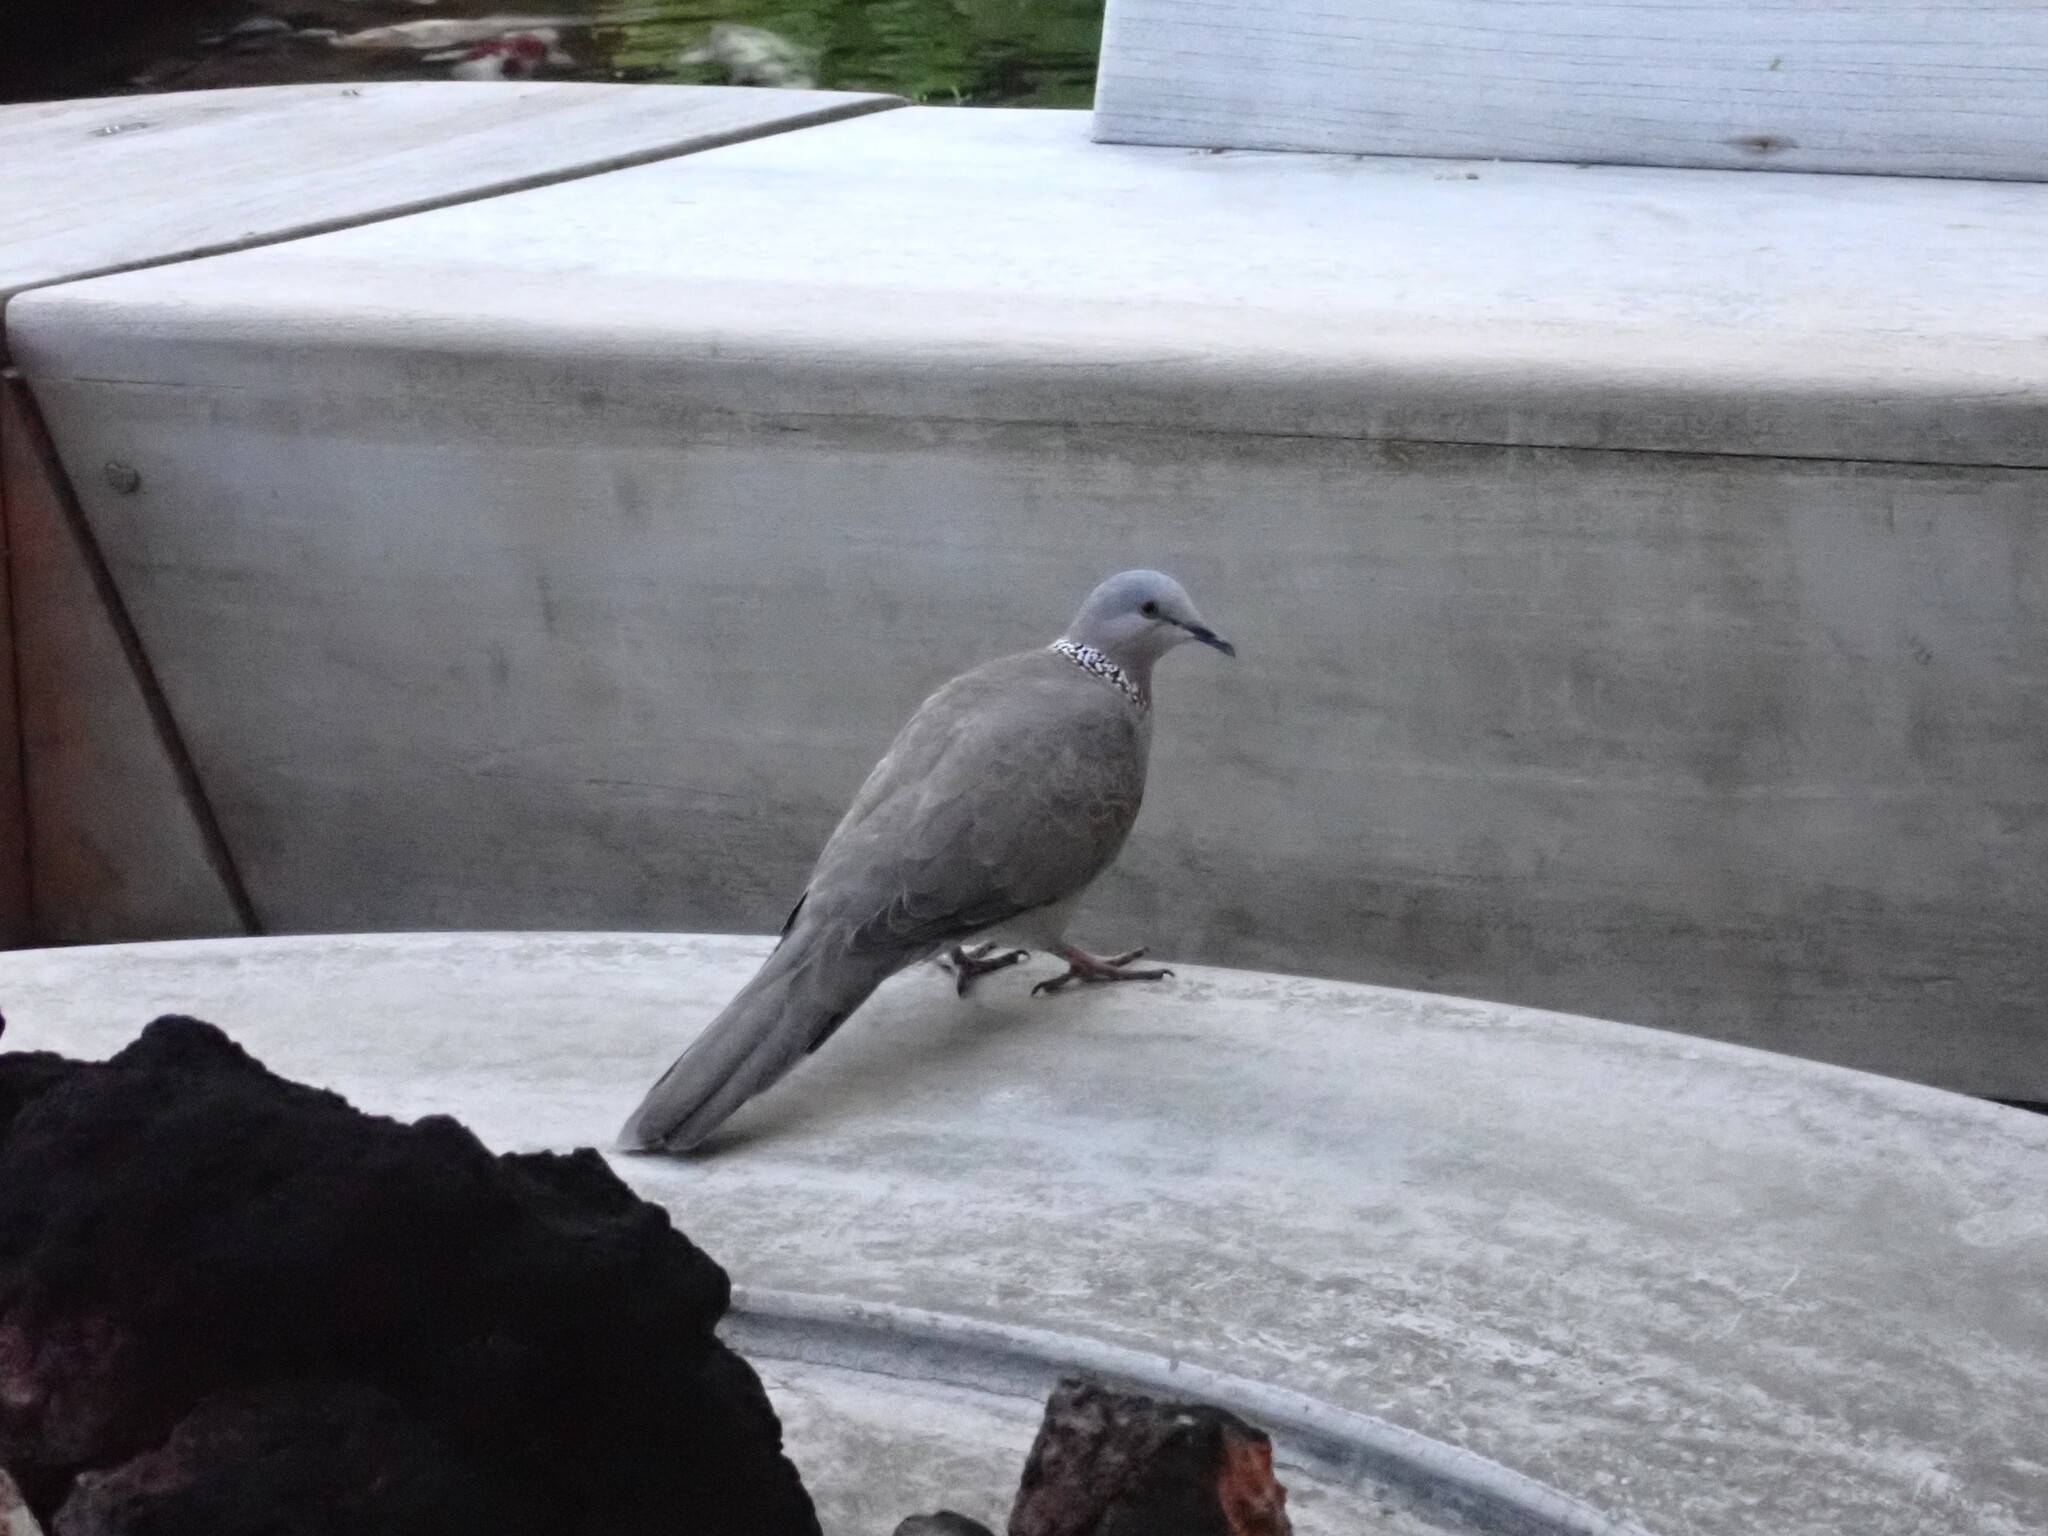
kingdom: Animalia
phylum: Chordata
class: Aves
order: Columbiformes
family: Columbidae
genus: Spilopelia
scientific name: Spilopelia chinensis
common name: Spotted dove
